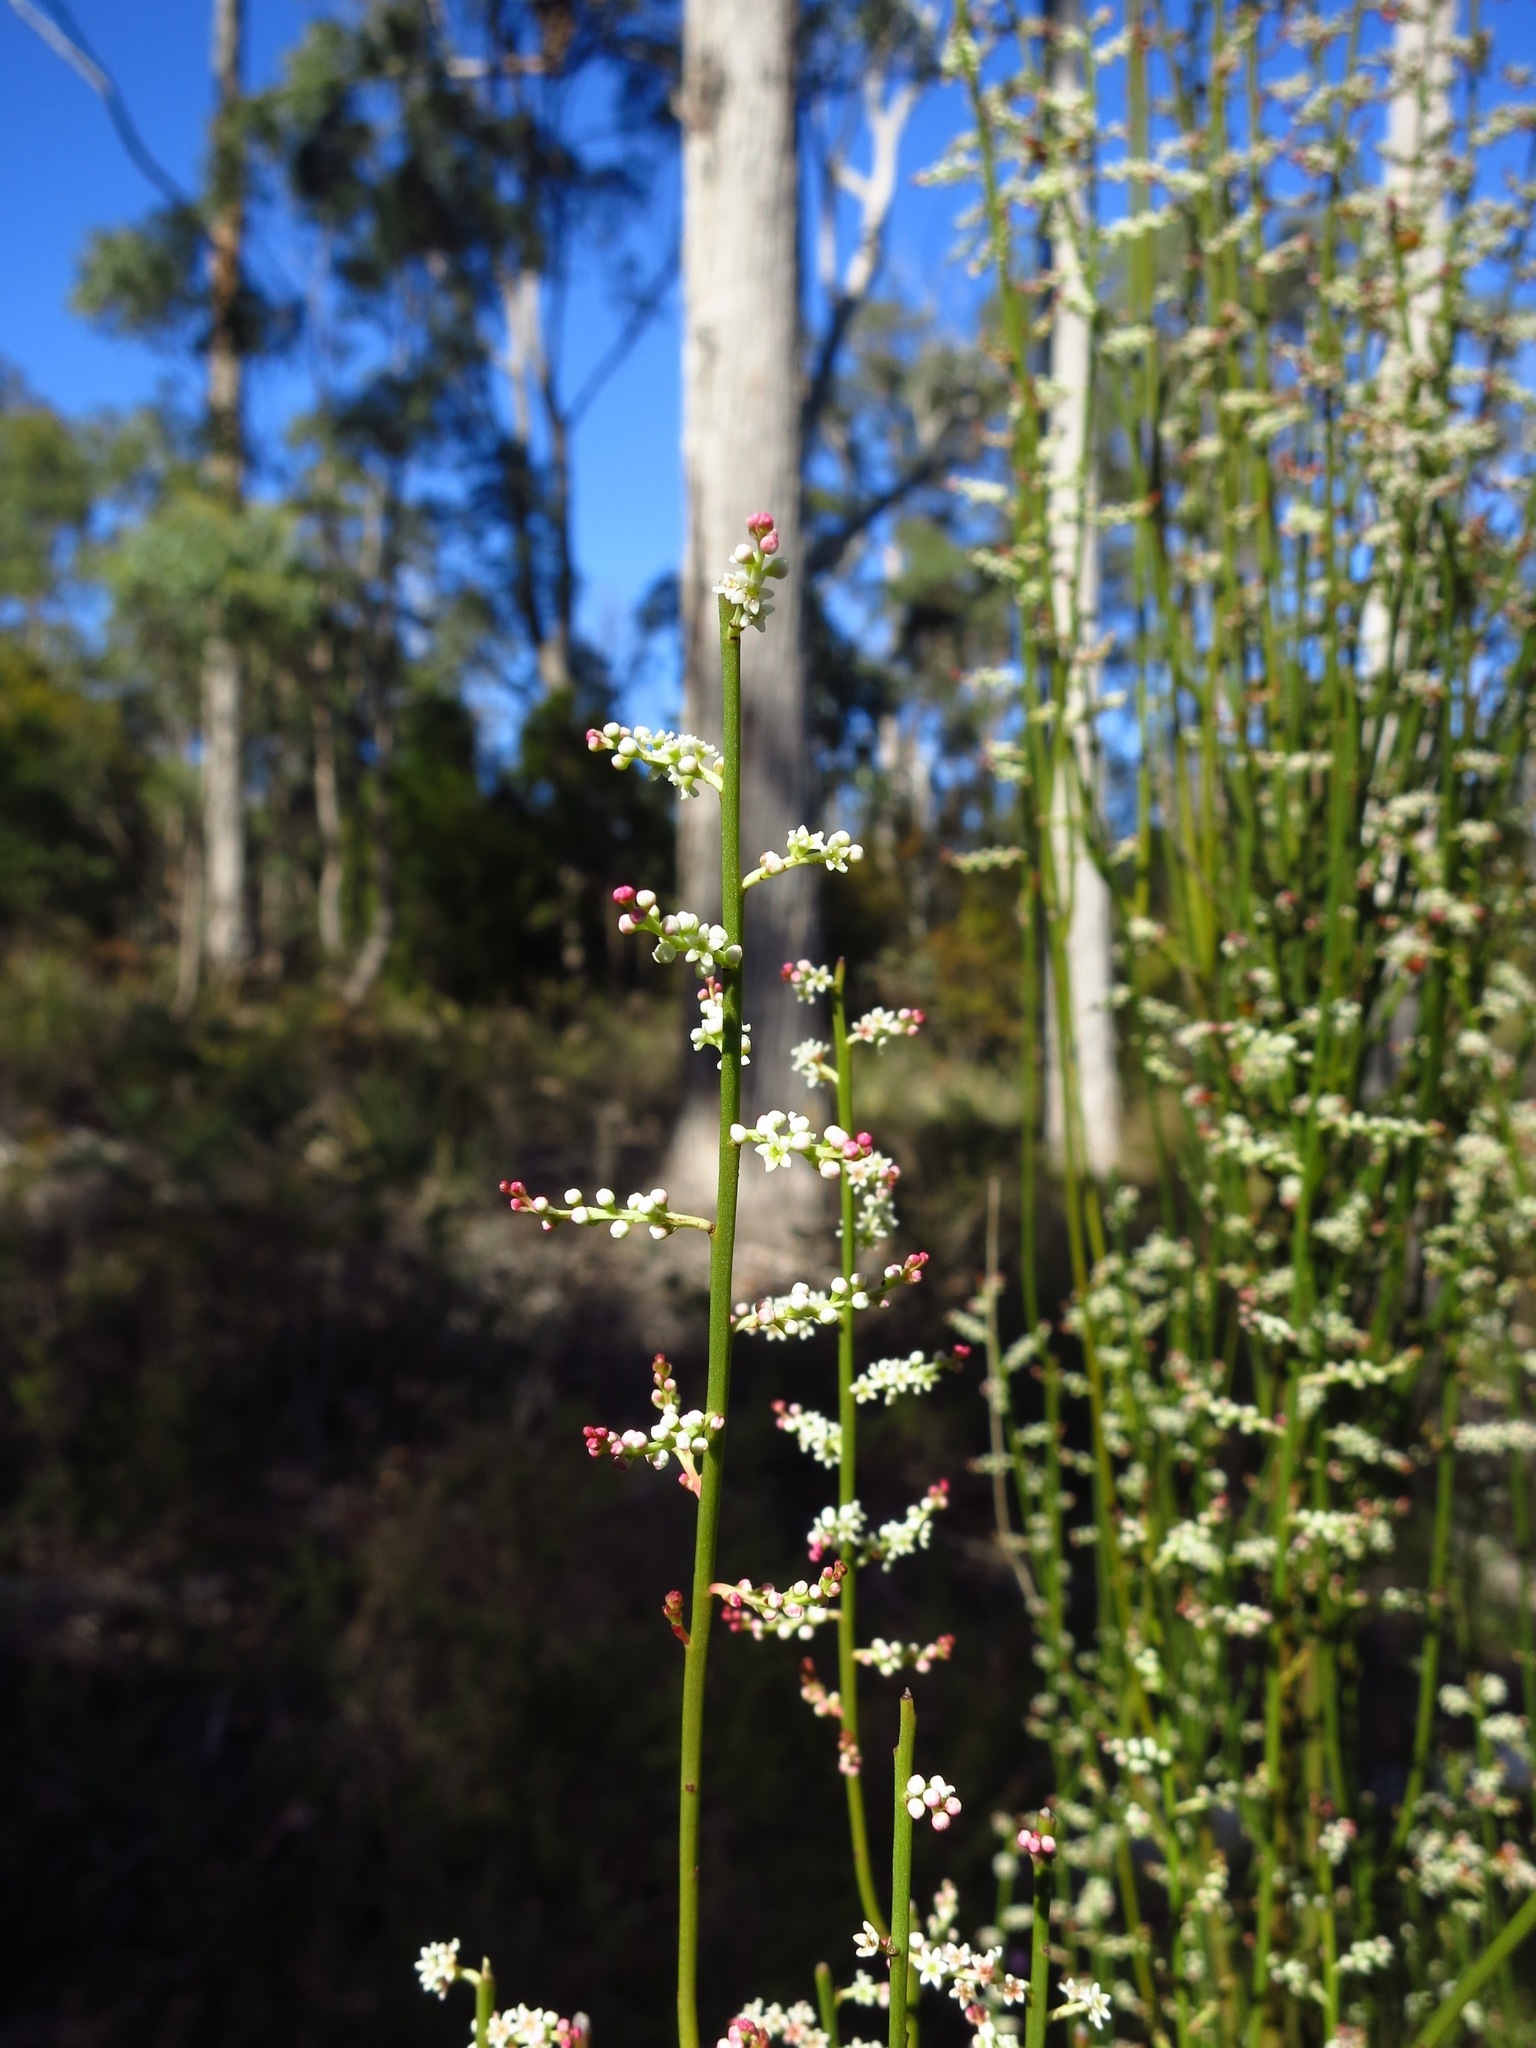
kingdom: Plantae
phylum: Tracheophyta
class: Magnoliopsida
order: Santalales
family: Amphorogynaceae
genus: Leptomeria
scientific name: Leptomeria drupacea
